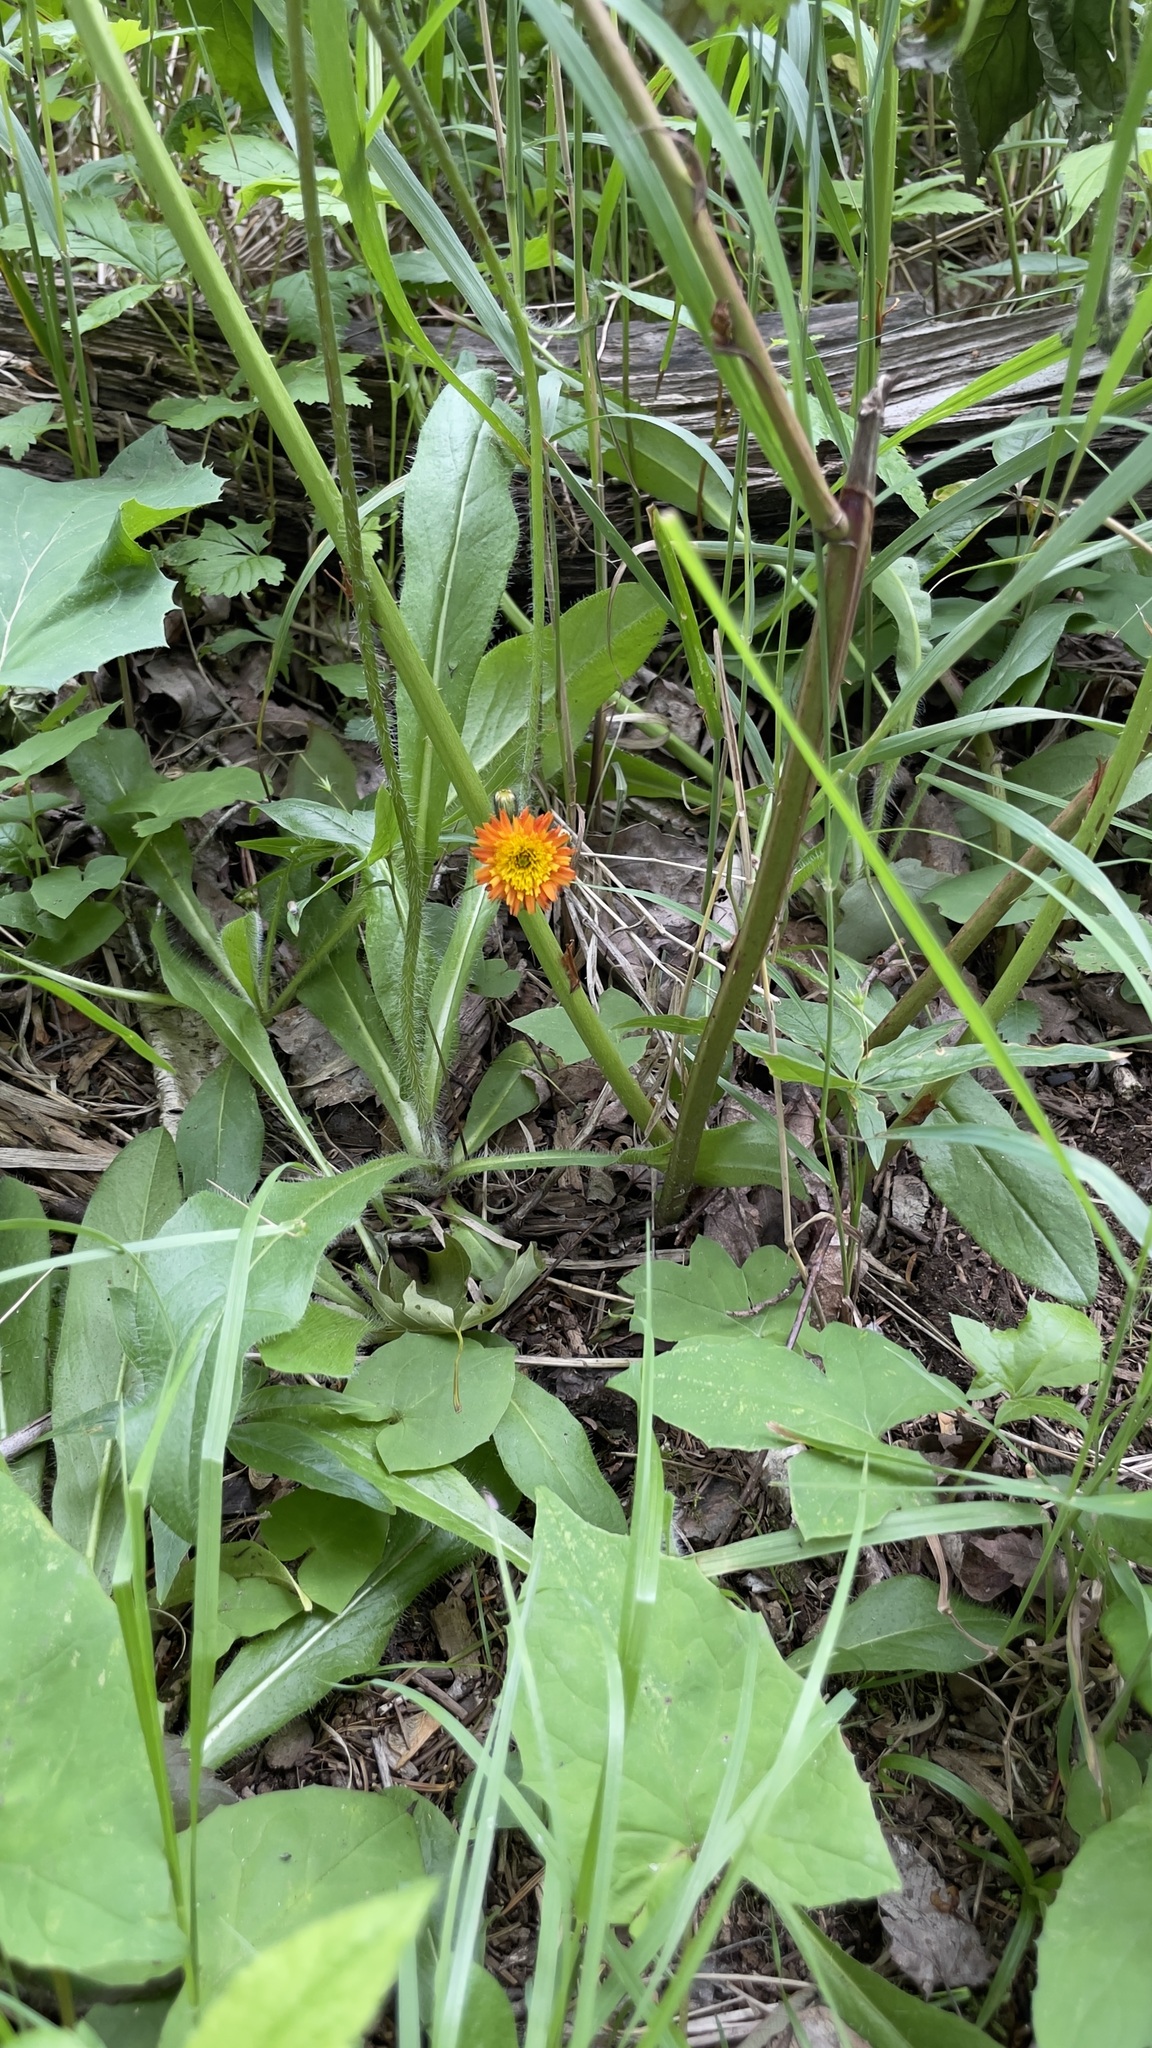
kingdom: Plantae
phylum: Tracheophyta
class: Magnoliopsida
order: Asterales
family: Asteraceae
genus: Pilosella
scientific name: Pilosella aurantiaca
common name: Fox-and-cubs
